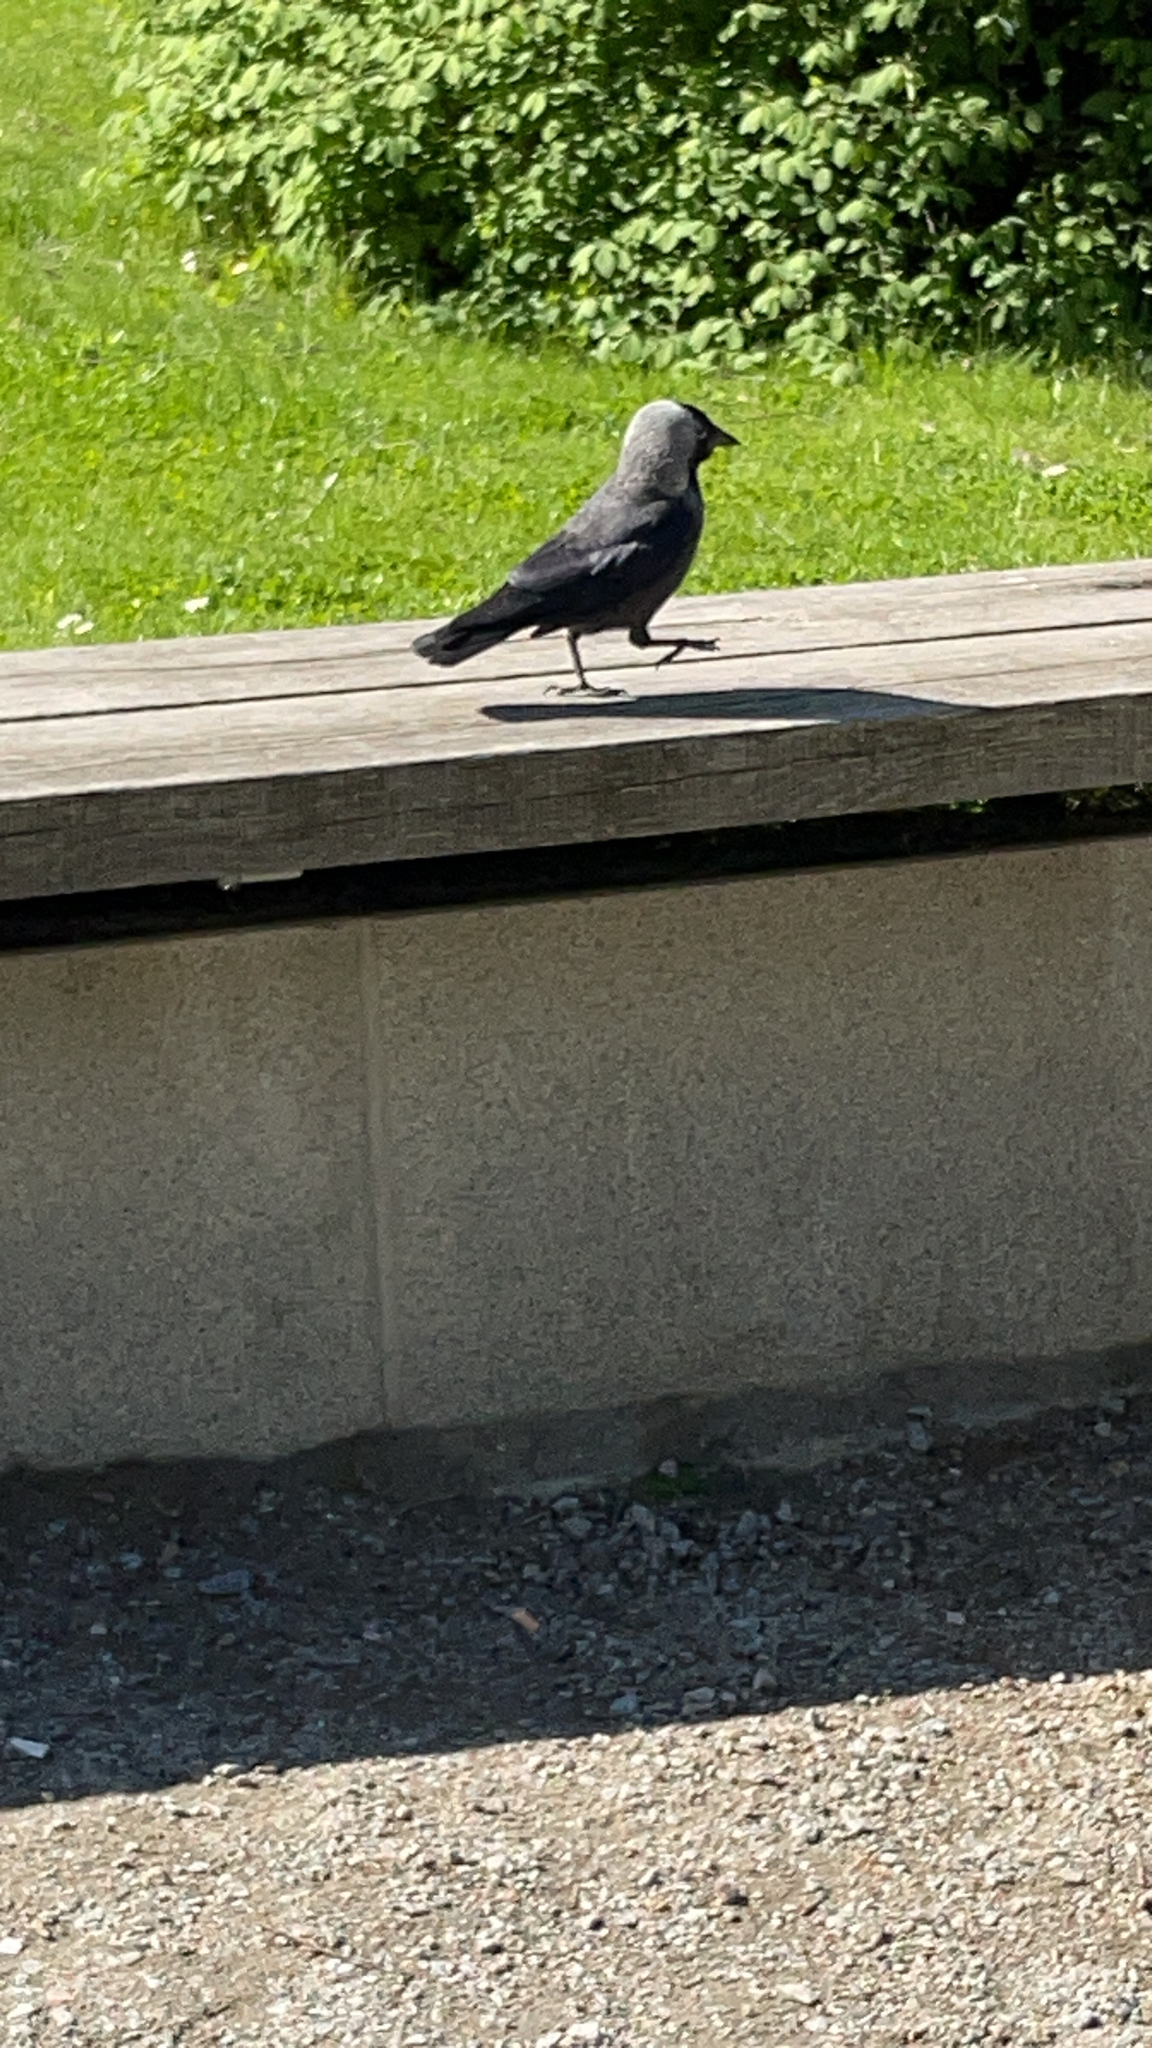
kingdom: Animalia
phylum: Chordata
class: Aves
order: Passeriformes
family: Corvidae
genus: Coloeus
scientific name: Coloeus monedula
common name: Western jackdaw
